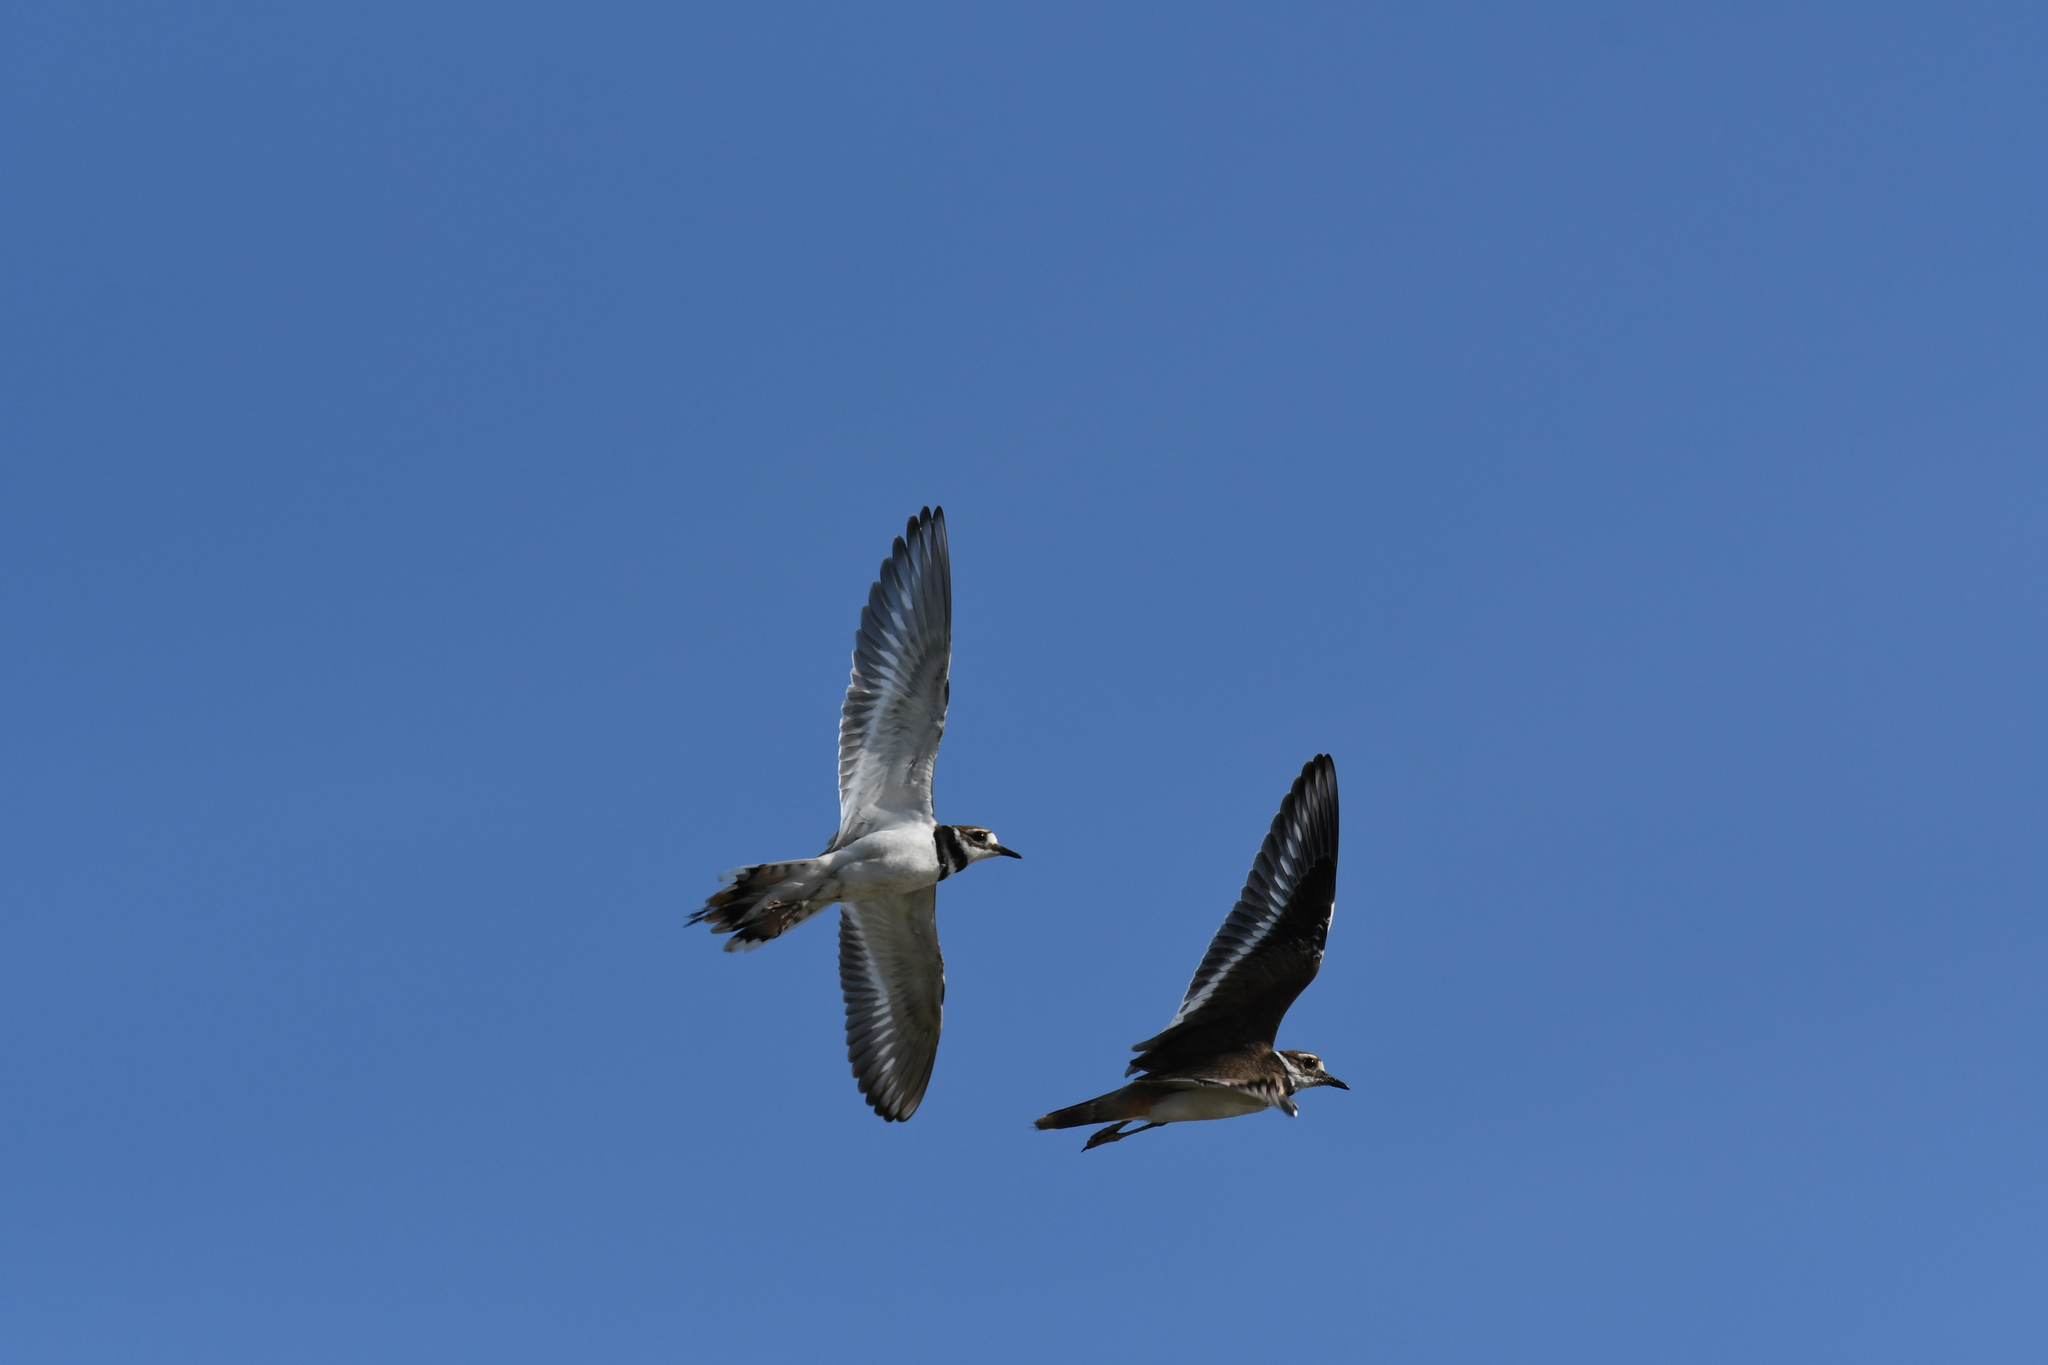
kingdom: Animalia
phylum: Chordata
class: Aves
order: Charadriiformes
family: Charadriidae
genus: Charadrius
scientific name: Charadrius vociferus
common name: Killdeer
